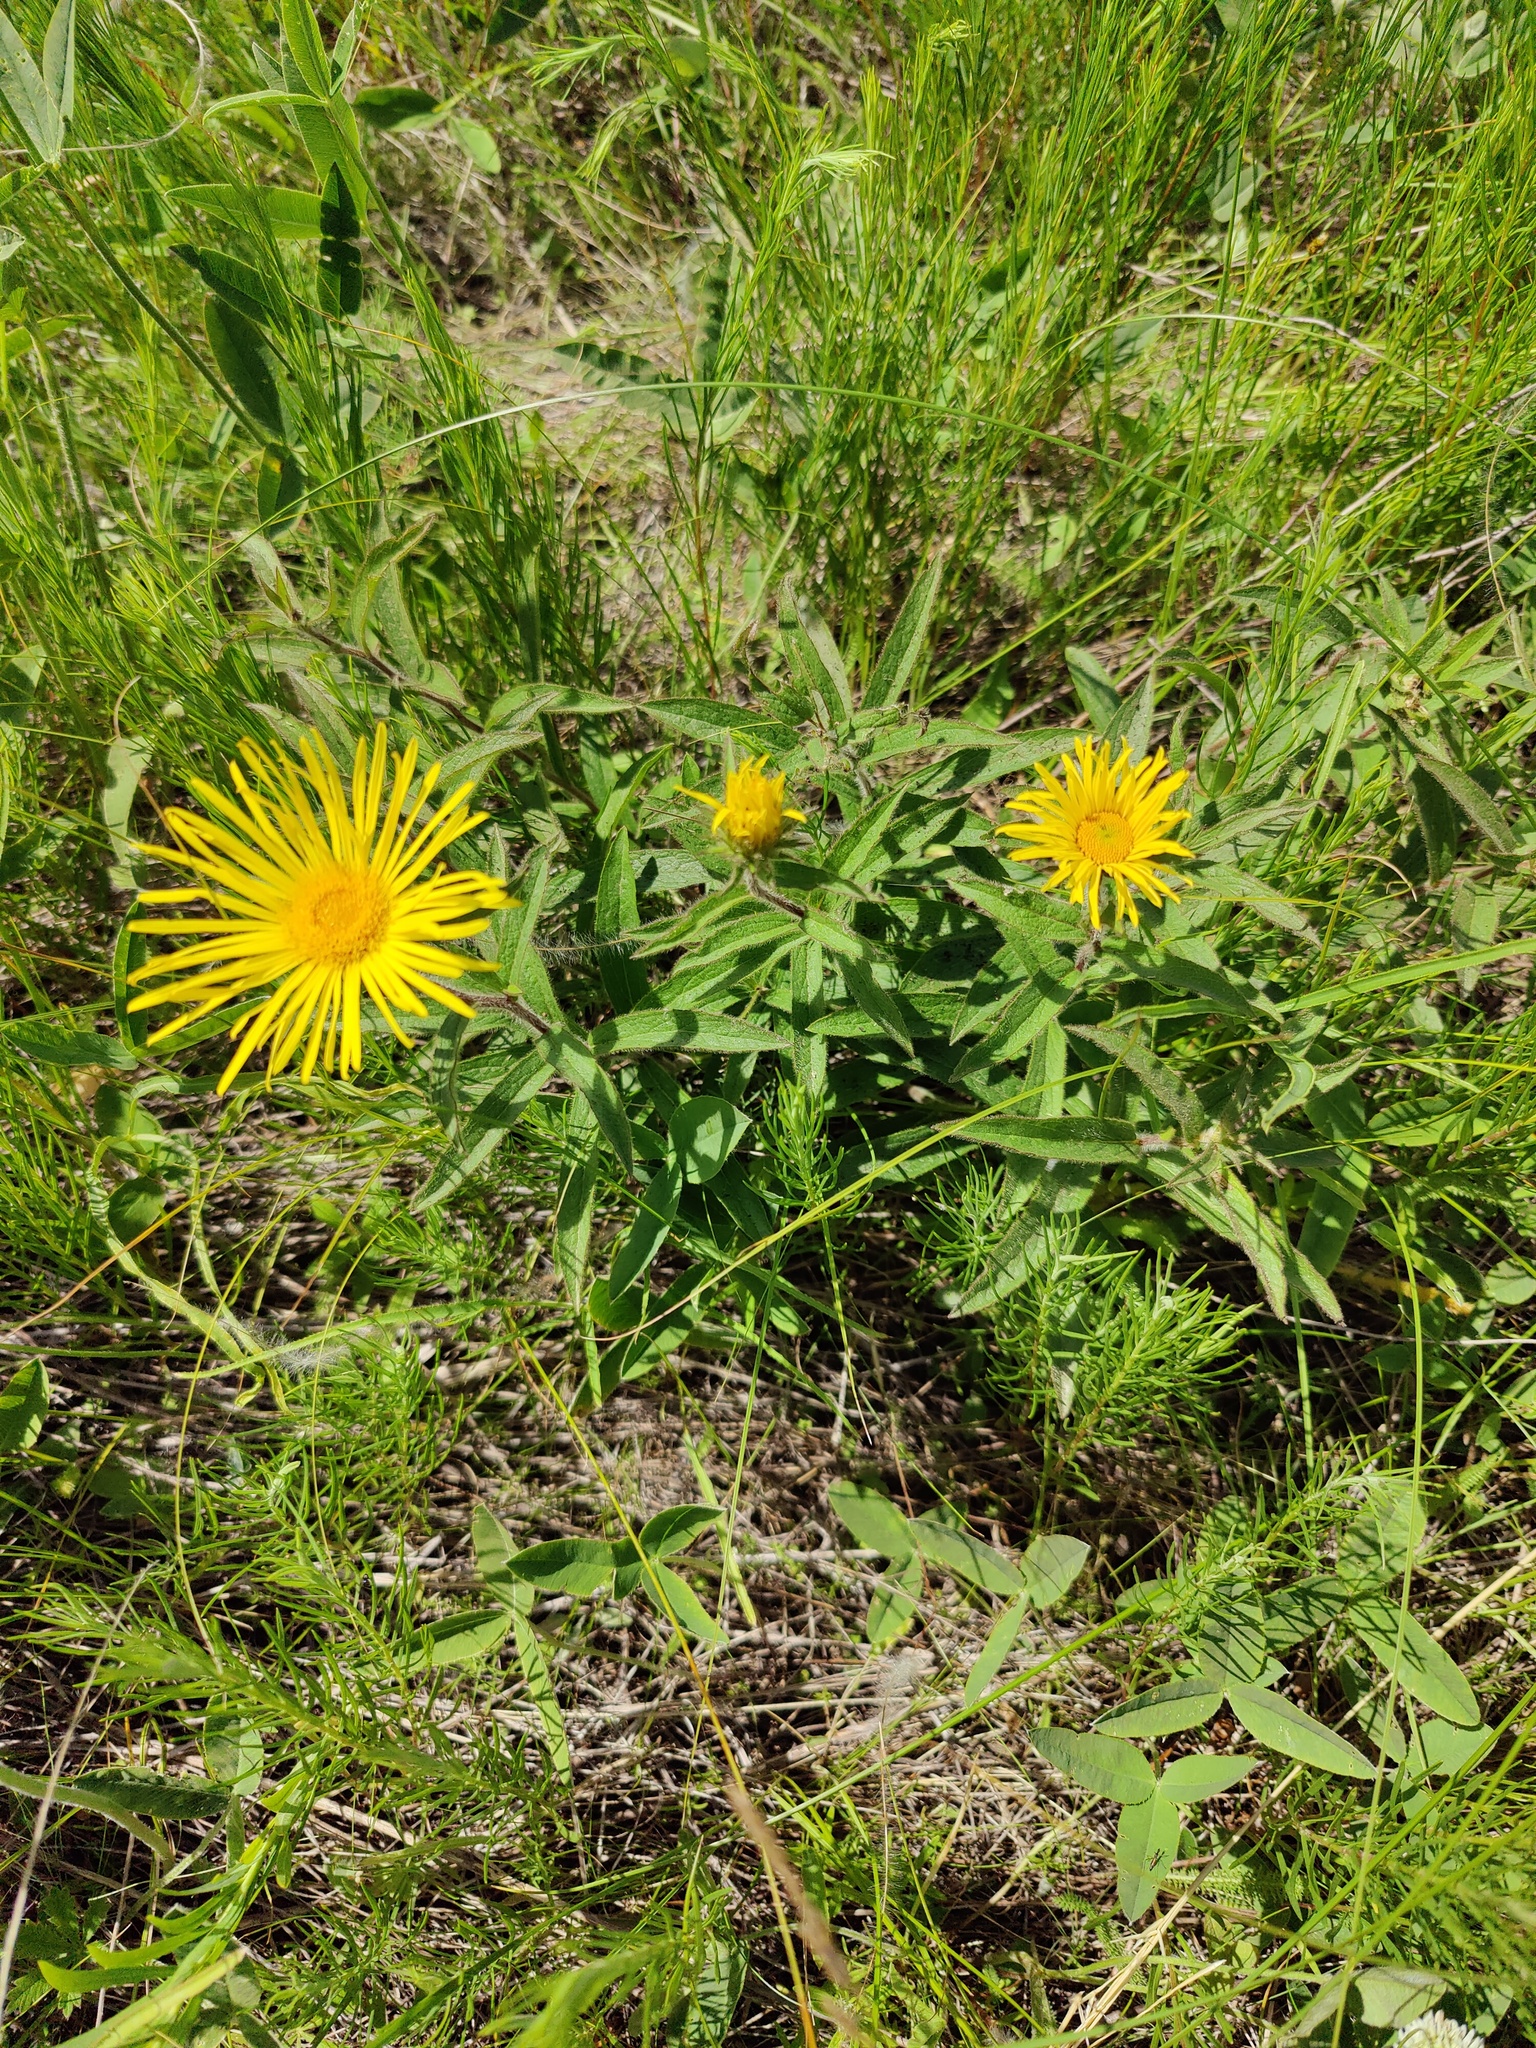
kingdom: Plantae
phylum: Tracheophyta
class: Magnoliopsida
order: Asterales
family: Asteraceae
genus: Pentanema
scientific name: Pentanema hirtum
